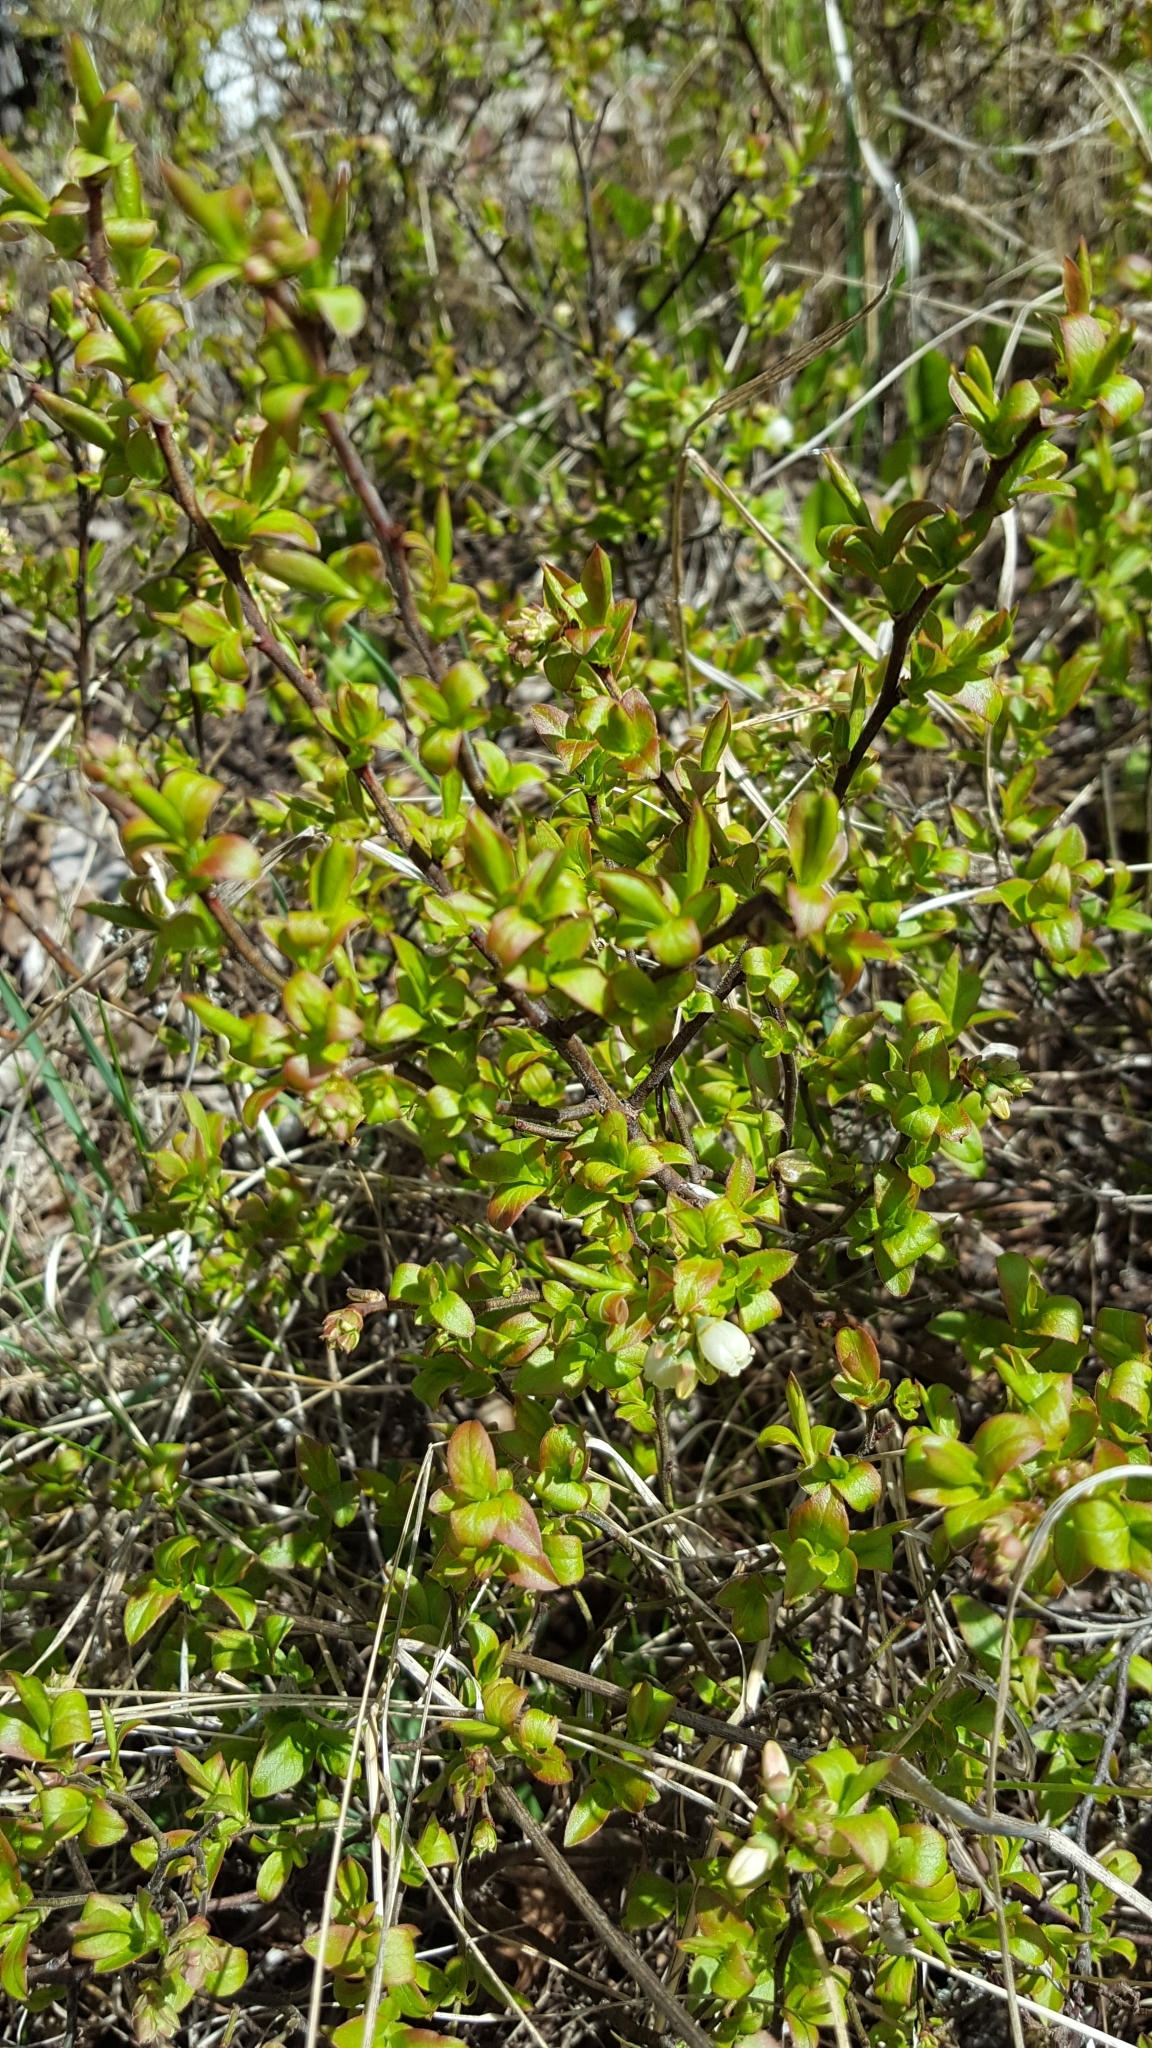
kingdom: Plantae
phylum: Tracheophyta
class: Magnoliopsida
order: Ericales
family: Ericaceae
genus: Vaccinium
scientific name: Vaccinium angustifolium
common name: Early lowbush blueberry
